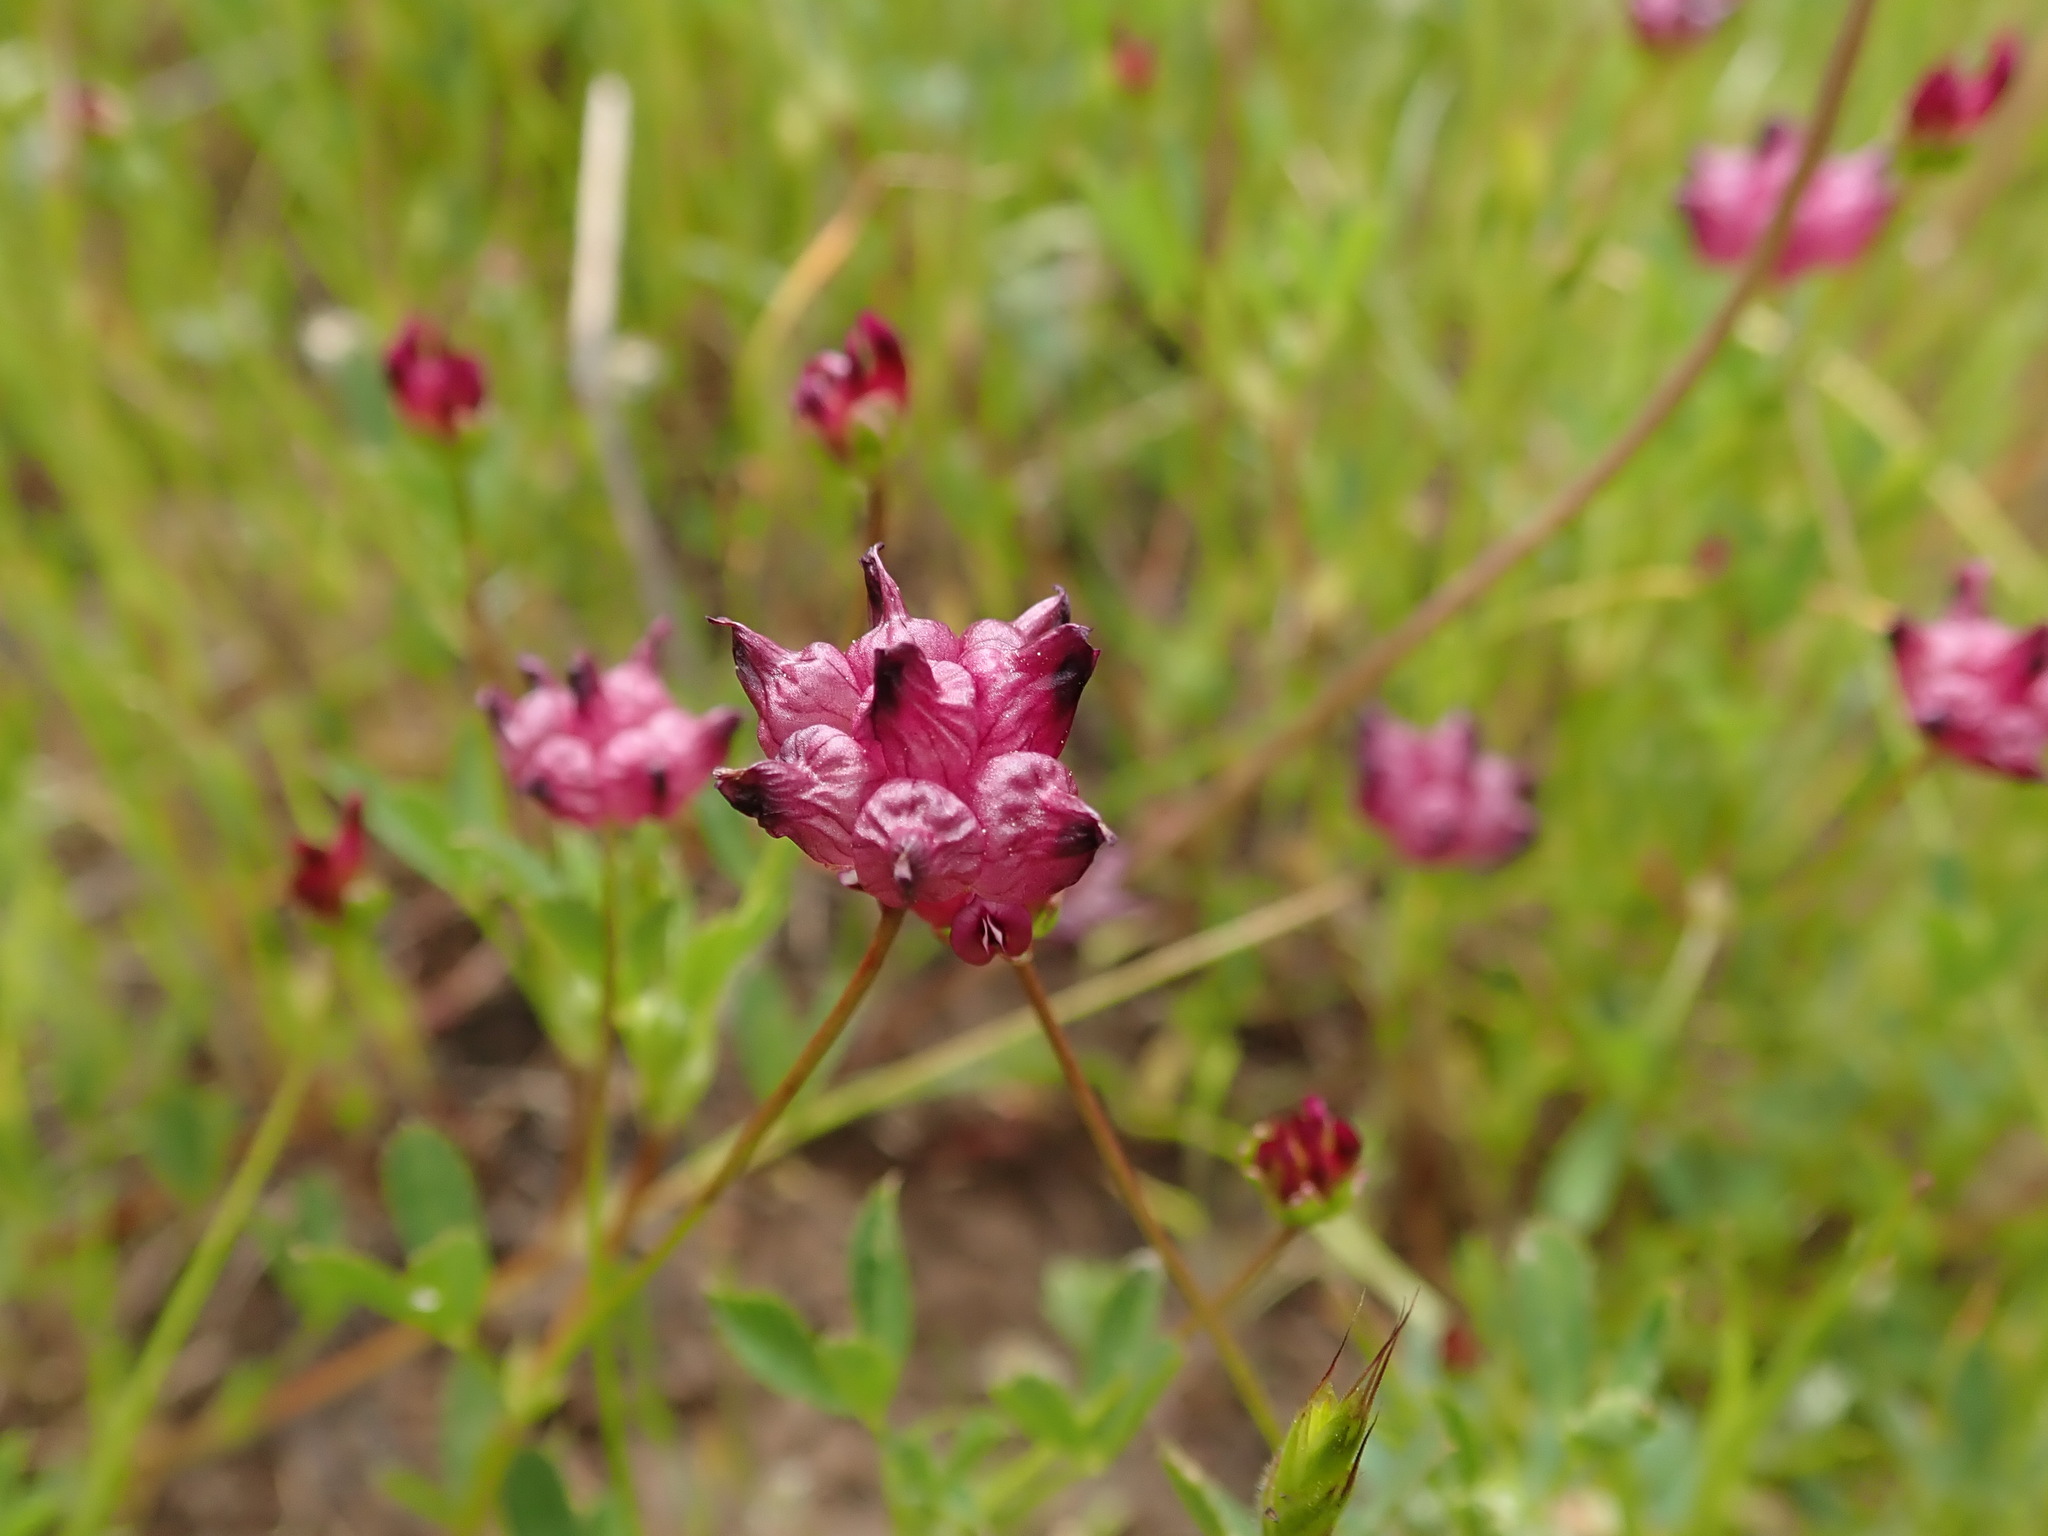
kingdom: Plantae
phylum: Tracheophyta
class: Magnoliopsida
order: Fabales
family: Fabaceae
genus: Trifolium
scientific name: Trifolium depauperatum
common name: Poverty clover
